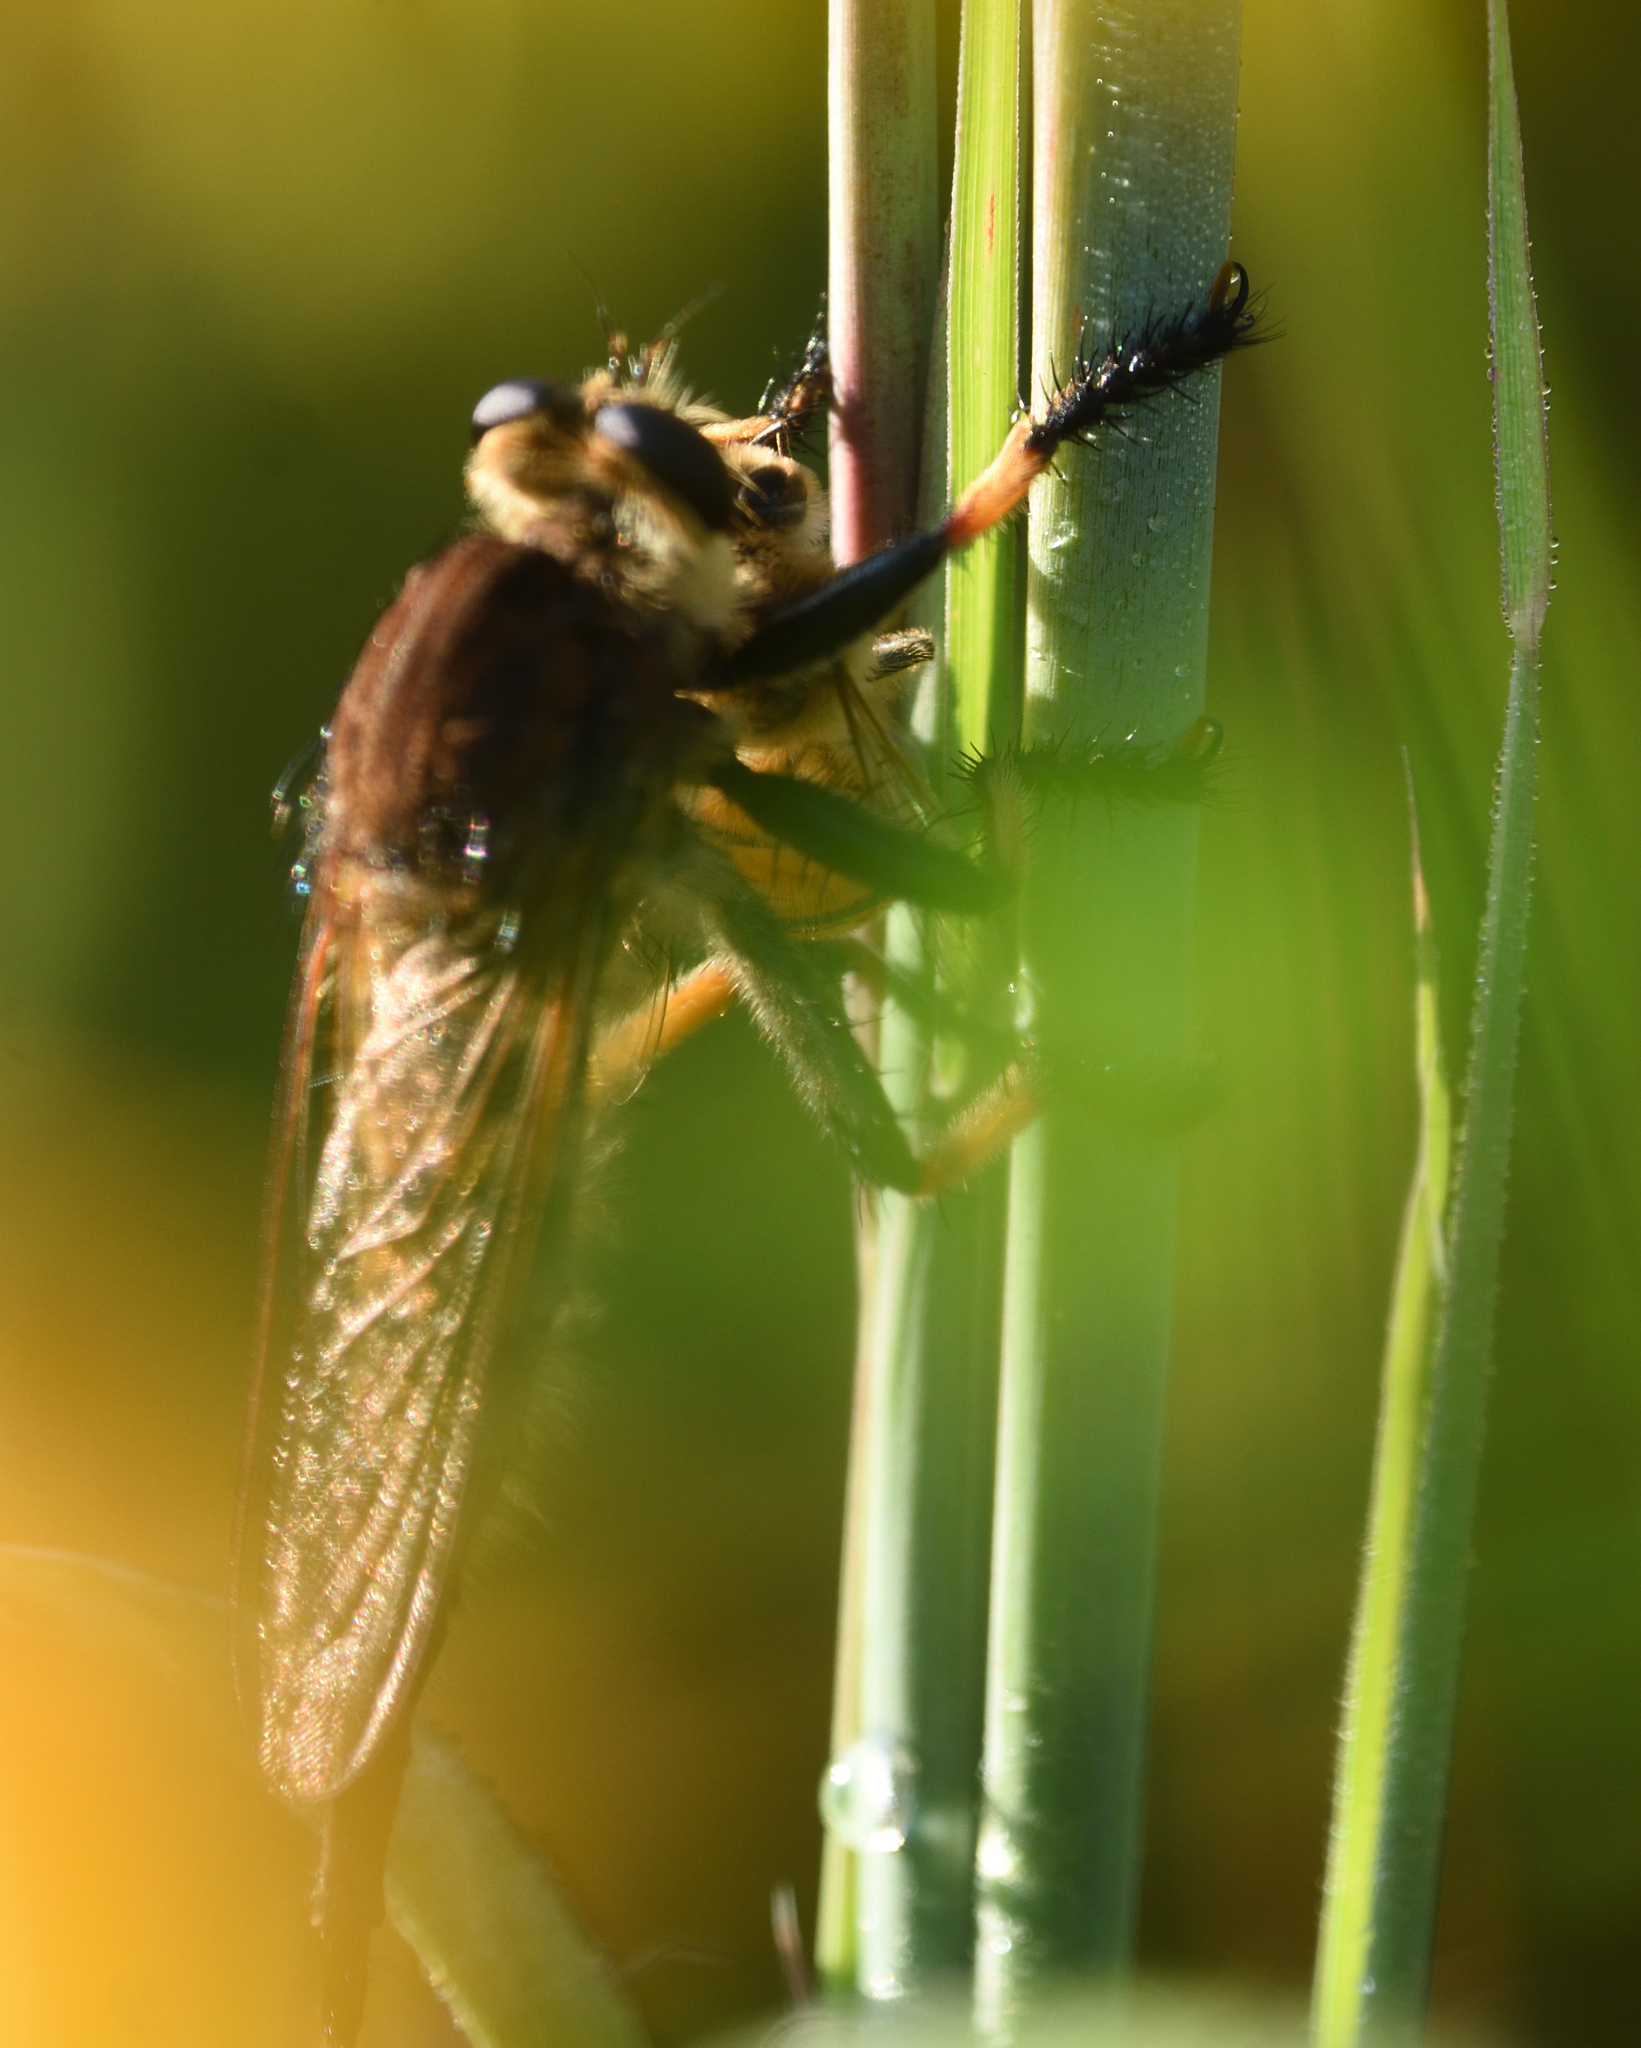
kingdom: Animalia
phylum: Arthropoda
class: Insecta
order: Diptera
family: Asilidae
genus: Promachus
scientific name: Promachus rufipes
